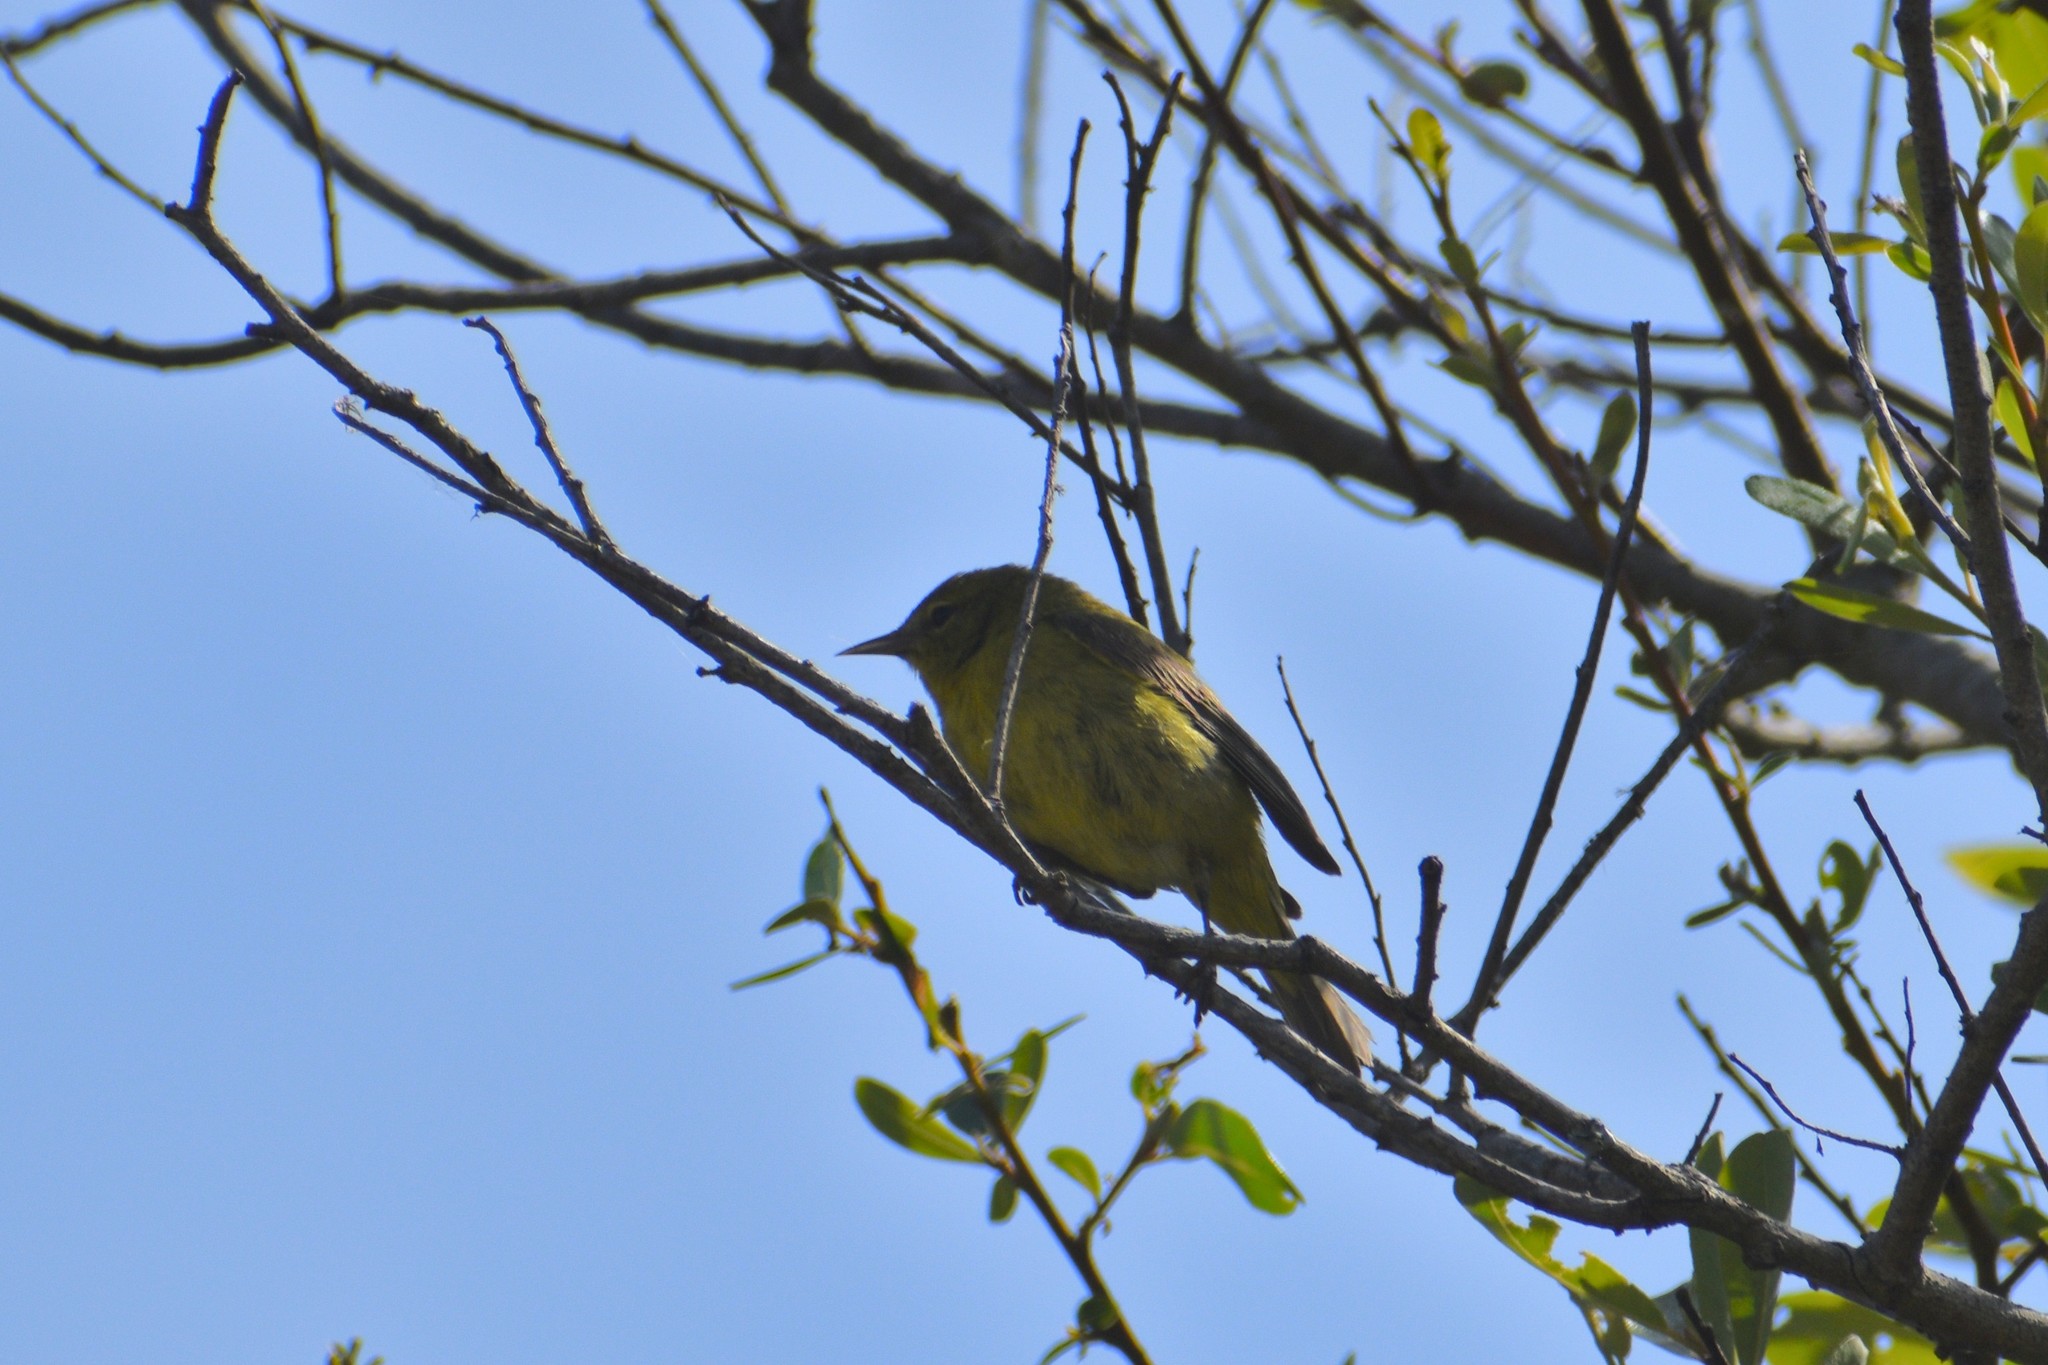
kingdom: Animalia
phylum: Chordata
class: Aves
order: Passeriformes
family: Parulidae
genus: Leiothlypis
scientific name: Leiothlypis celata
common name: Orange-crowned warbler
